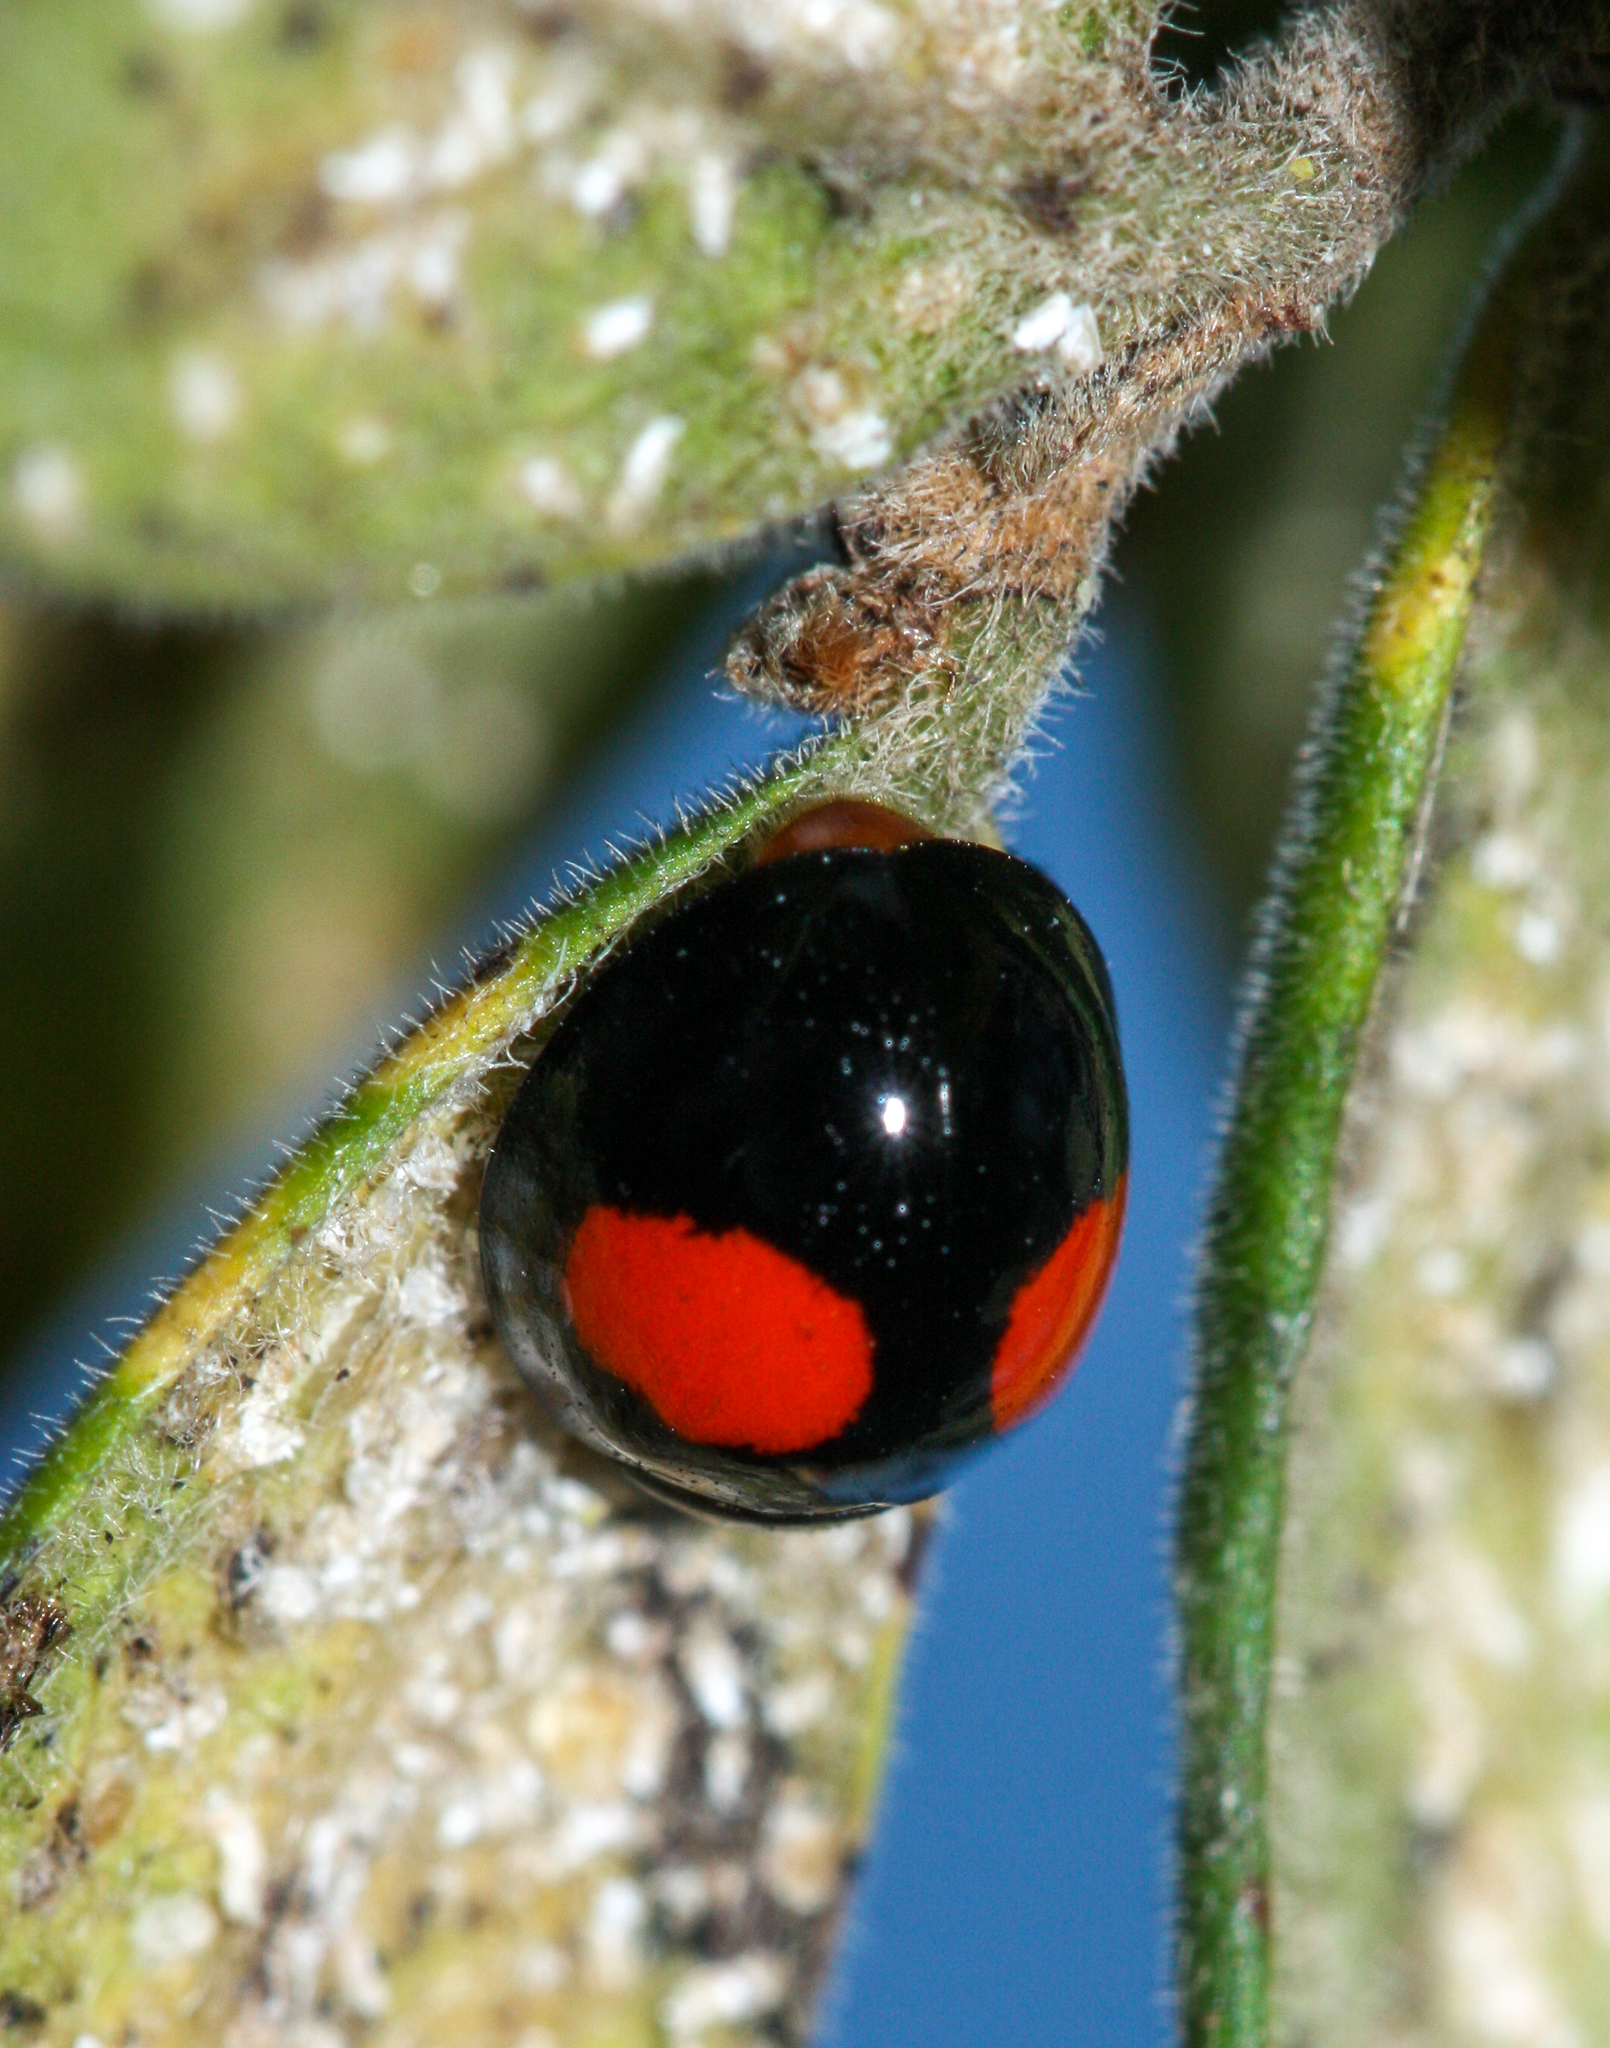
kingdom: Animalia
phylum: Arthropoda
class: Insecta
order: Coleoptera
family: Coccinellidae
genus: Chilocorus
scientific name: Chilocorus cacti
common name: Cactus lady beetle
